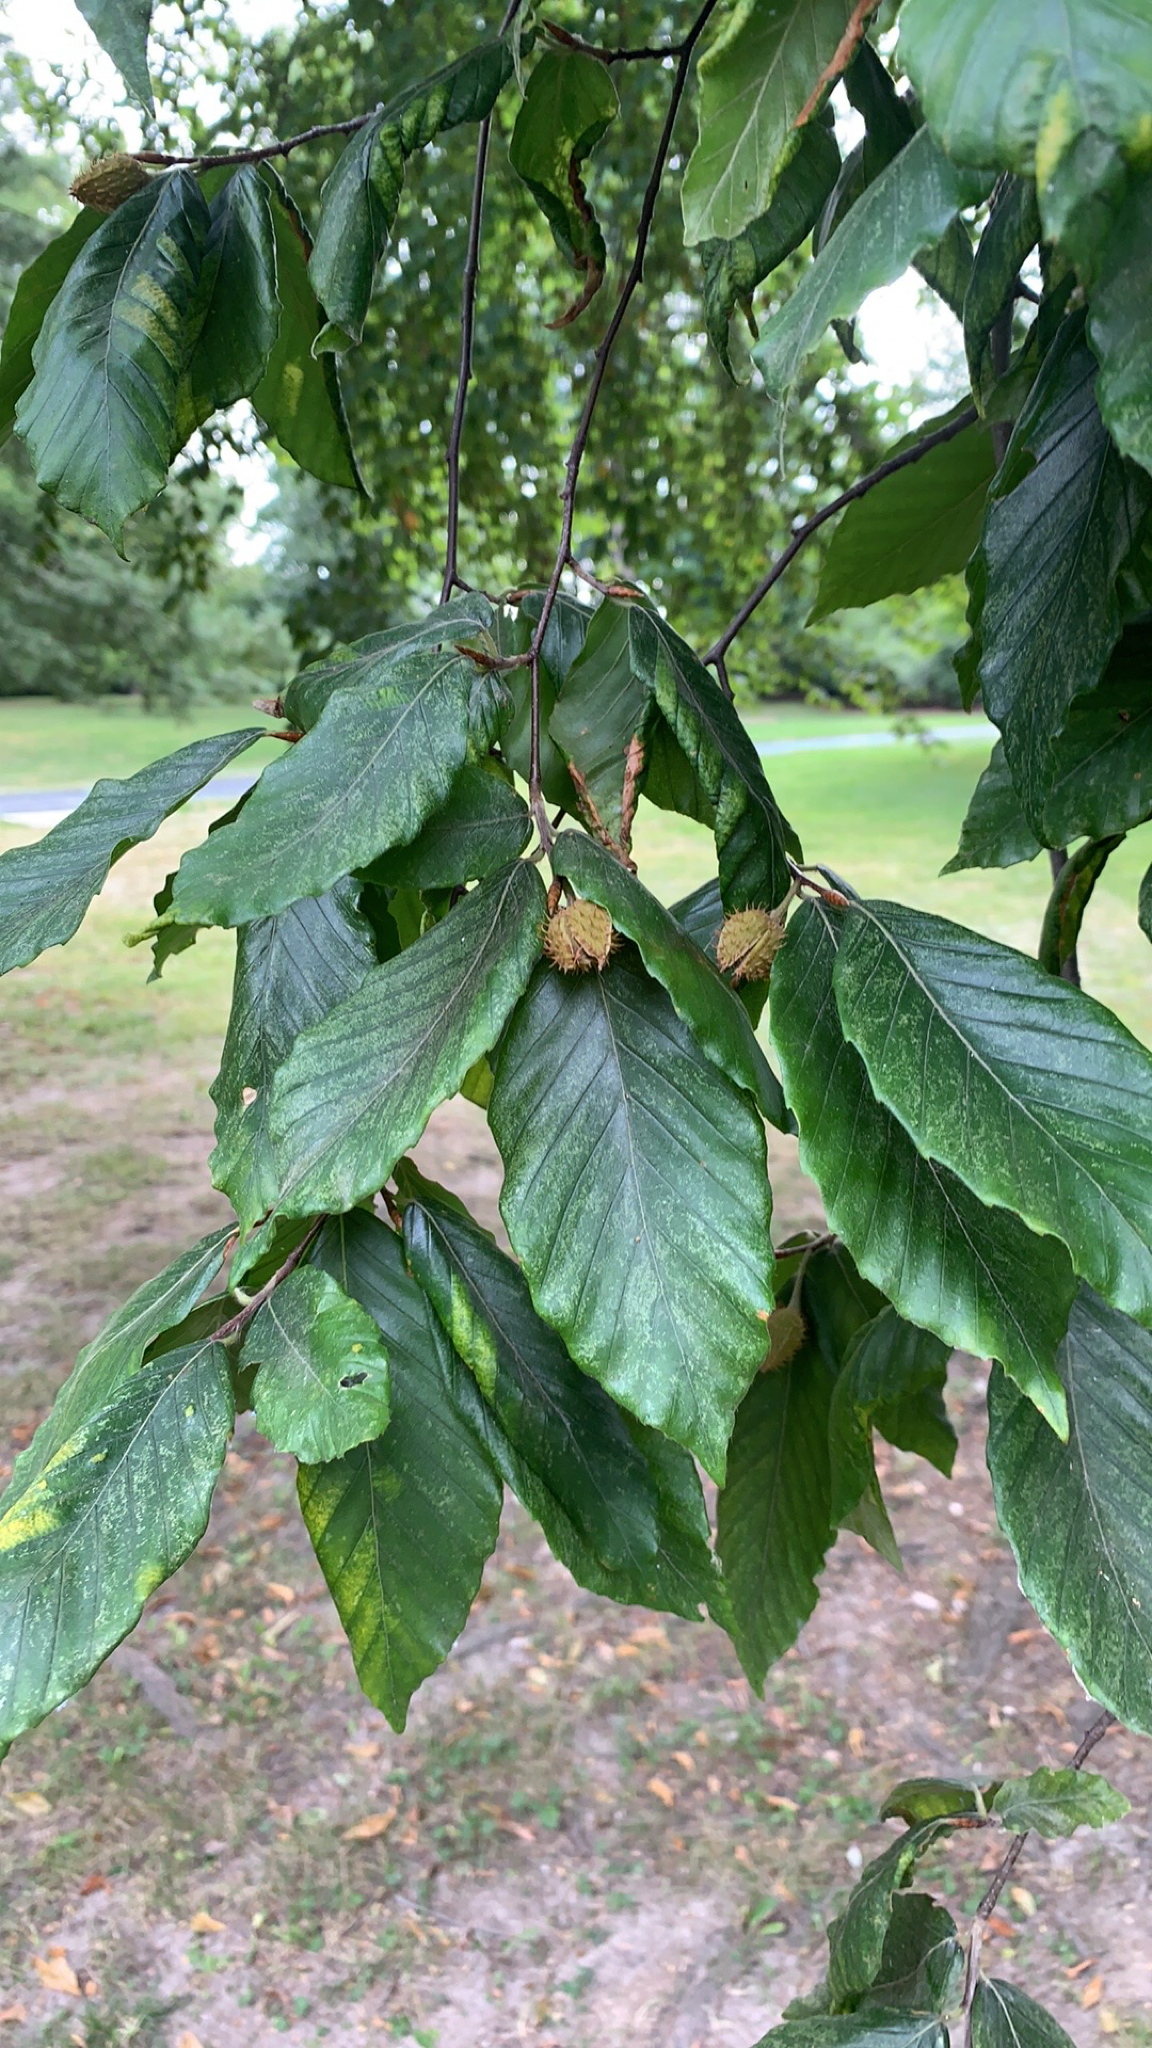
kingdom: Plantae
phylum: Tracheophyta
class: Magnoliopsida
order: Fagales
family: Fagaceae
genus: Fagus
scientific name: Fagus grandifolia
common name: American beech
